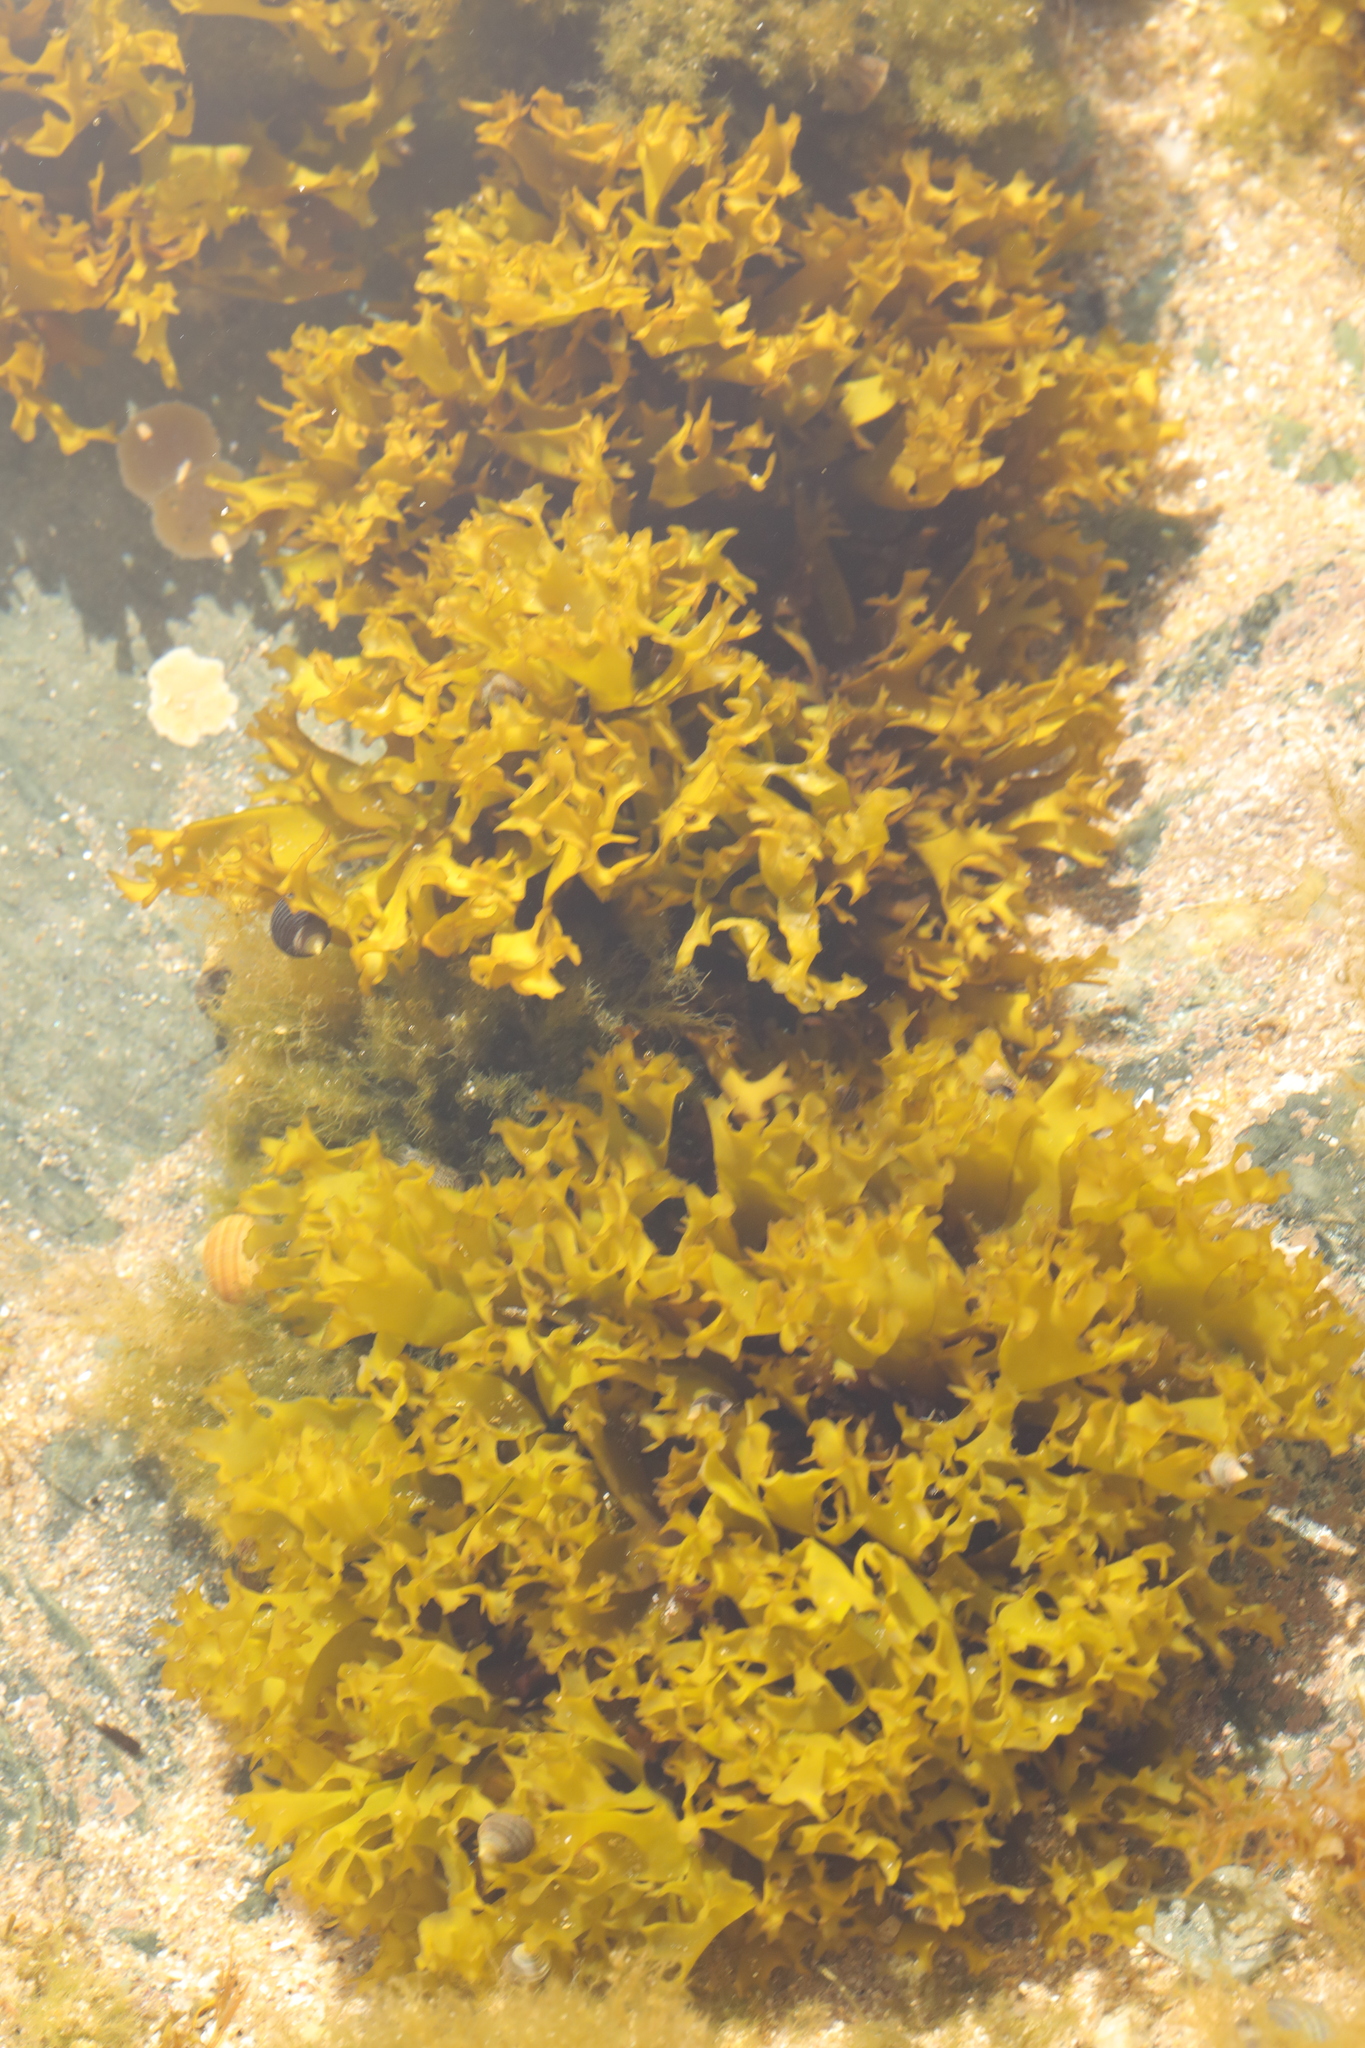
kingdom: Plantae
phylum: Rhodophyta
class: Florideophyceae
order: Gigartinales
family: Gigartinaceae
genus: Chondrus
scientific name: Chondrus crispus
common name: Carrageen
